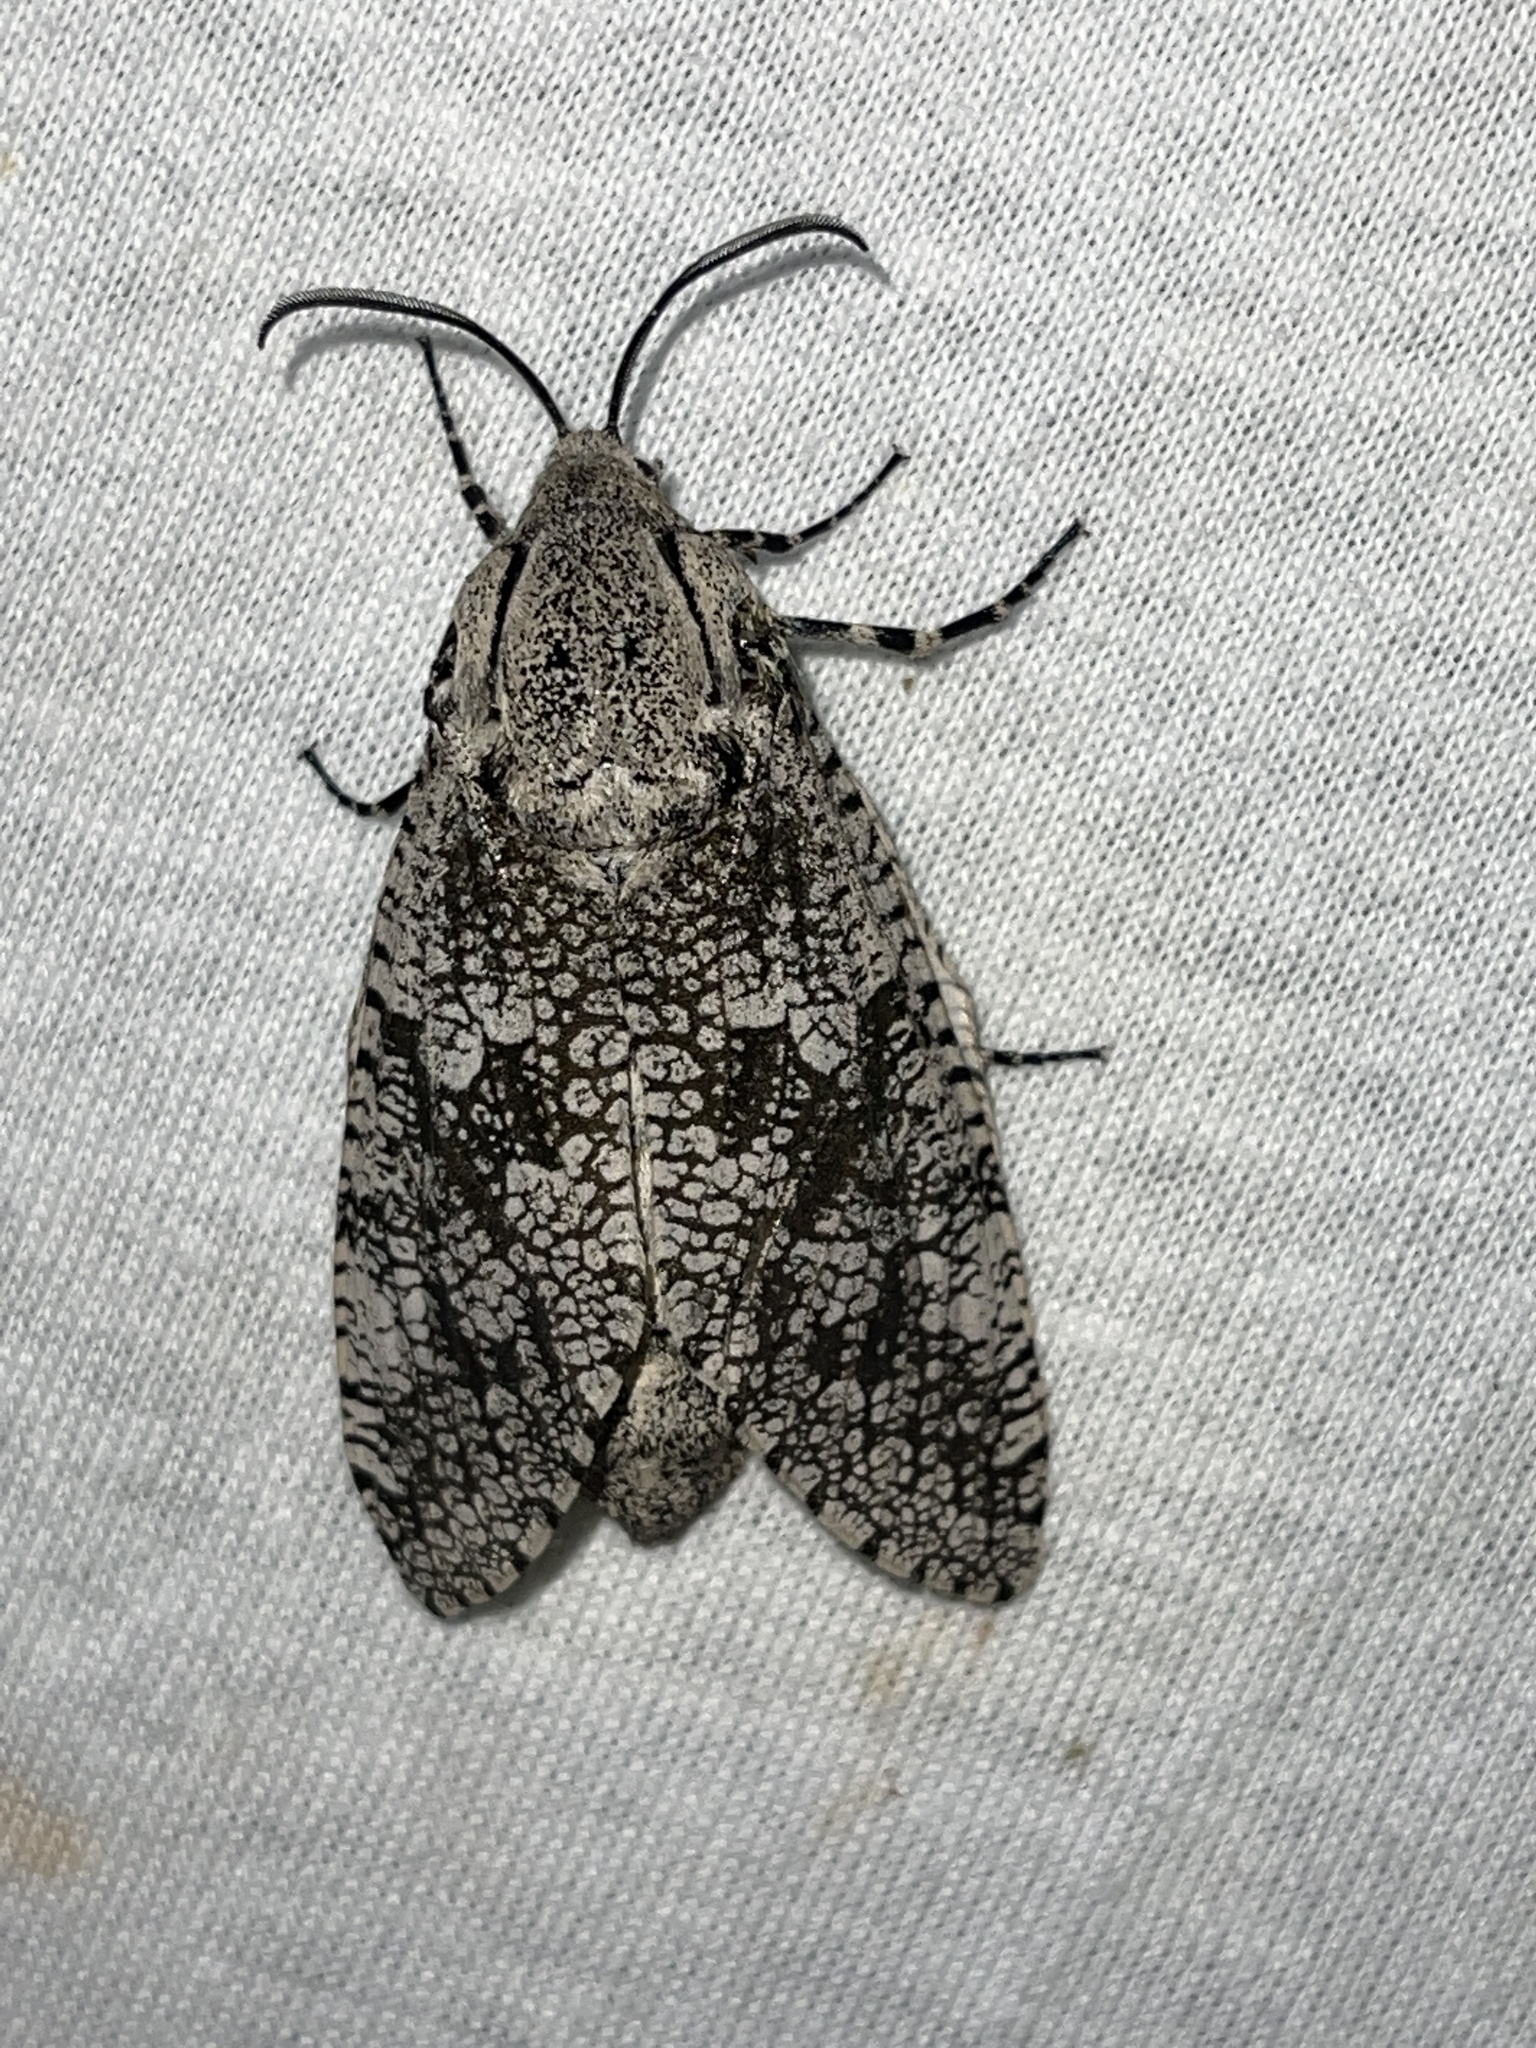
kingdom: Animalia
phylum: Arthropoda
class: Insecta
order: Lepidoptera
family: Cossidae
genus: Prionoxystus
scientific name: Prionoxystus robiniae
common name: Carpenterworm
